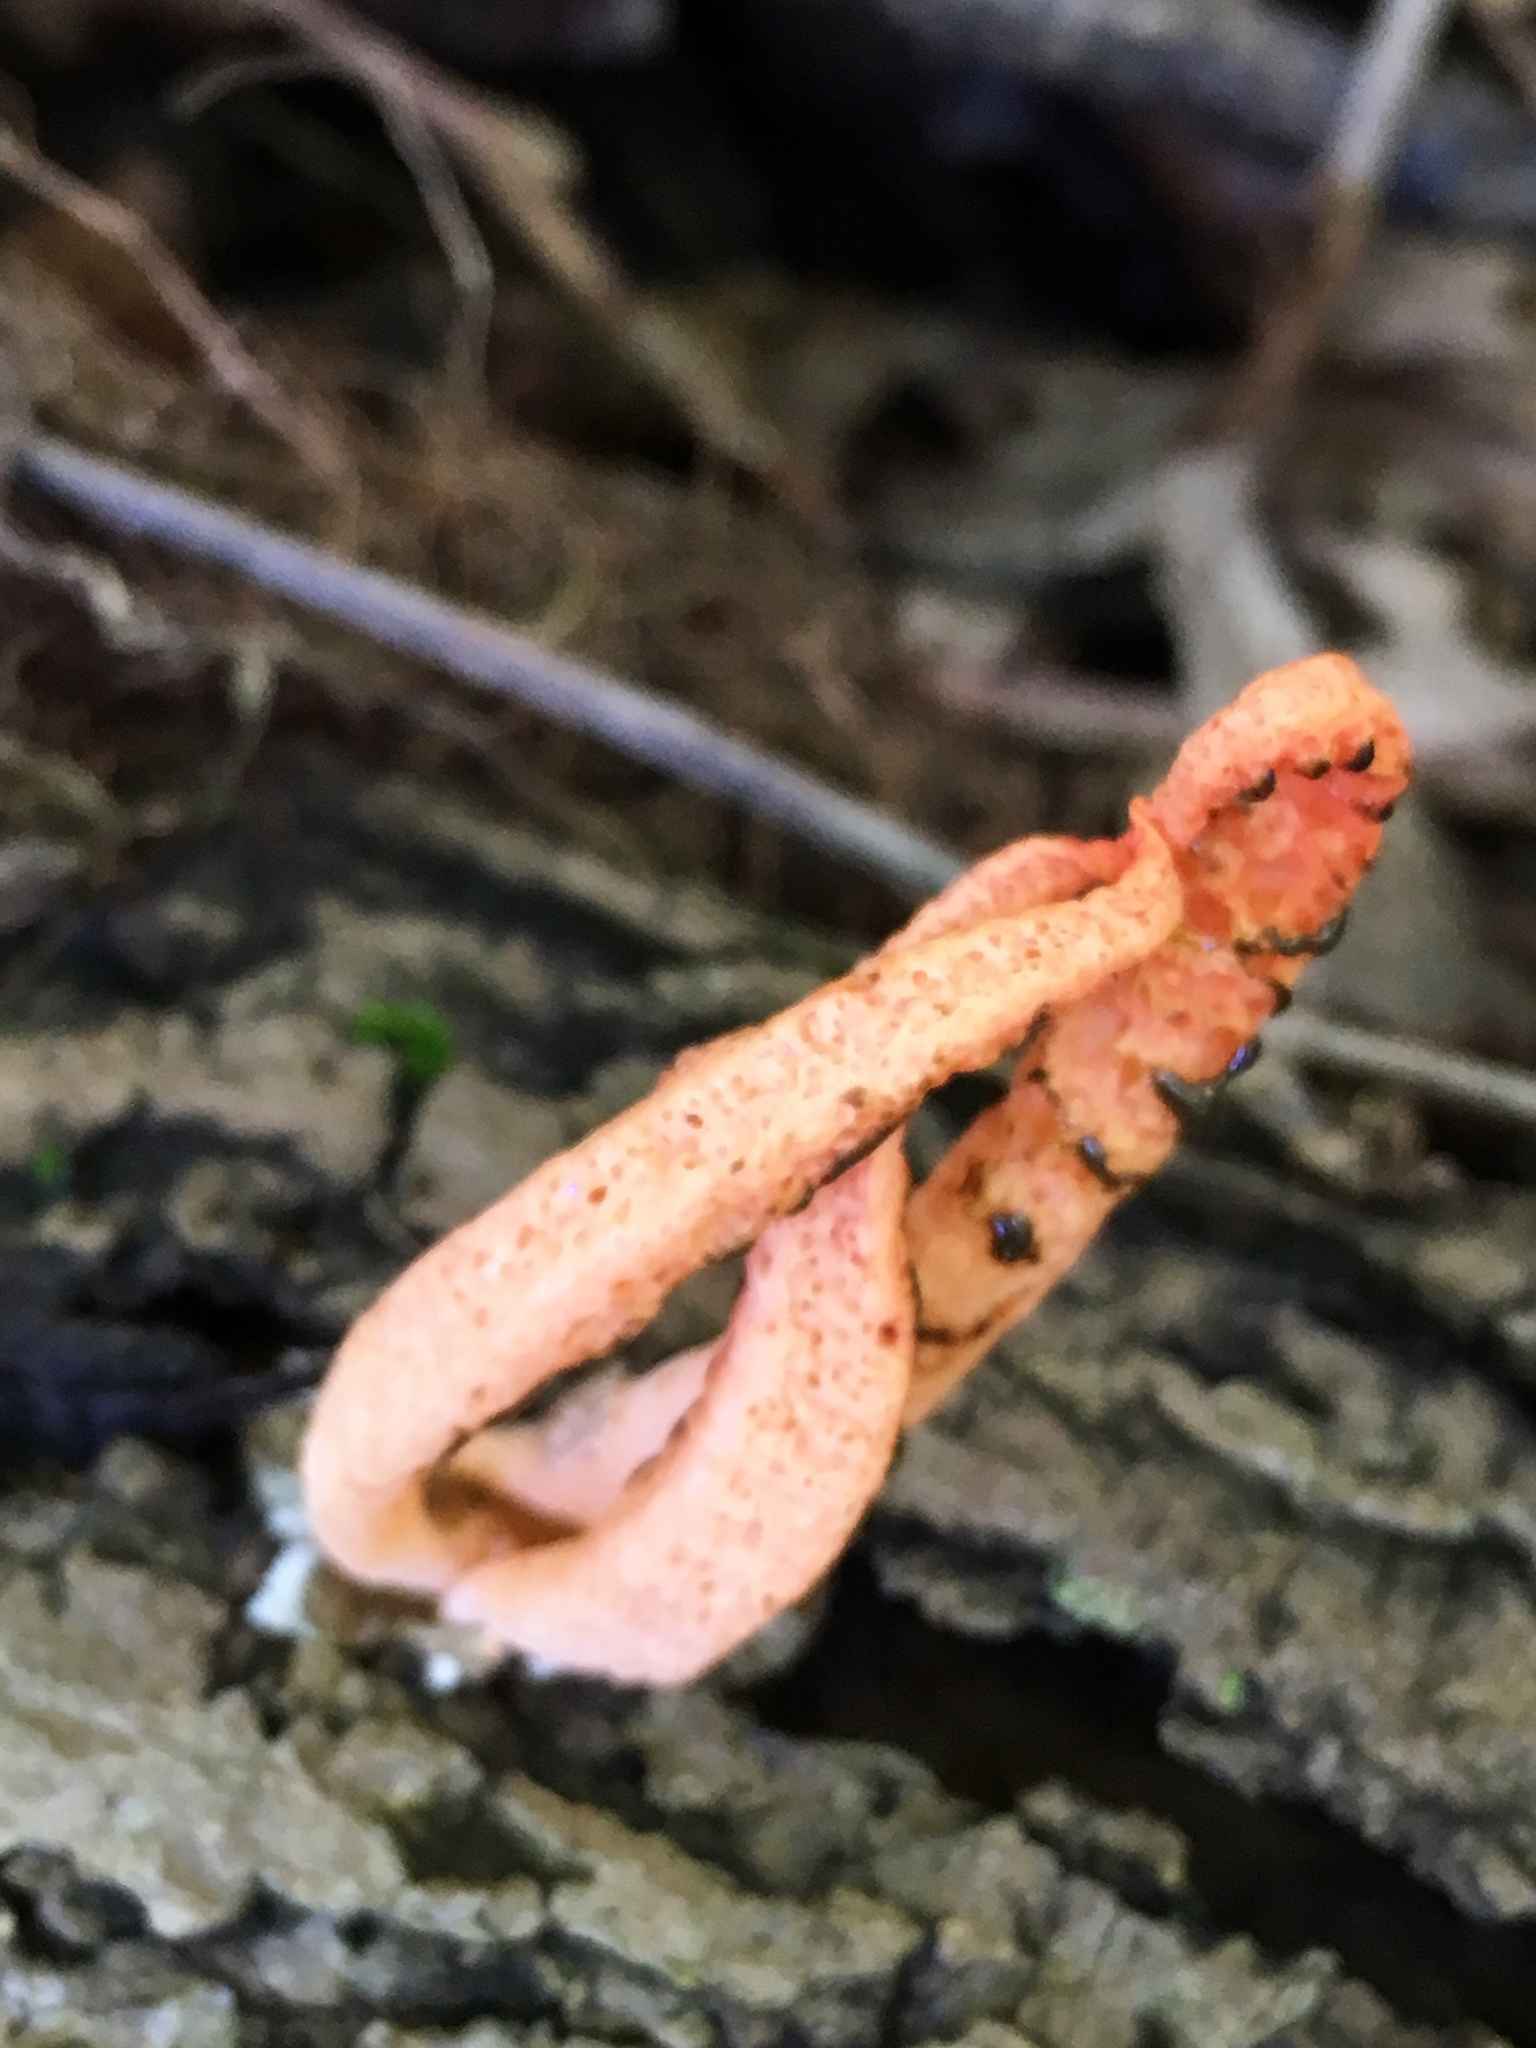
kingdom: Fungi
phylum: Basidiomycota
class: Agaricomycetes
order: Phallales
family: Phallaceae
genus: Pseudocolus
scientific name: Pseudocolus fusiformis
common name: Stinky squid
